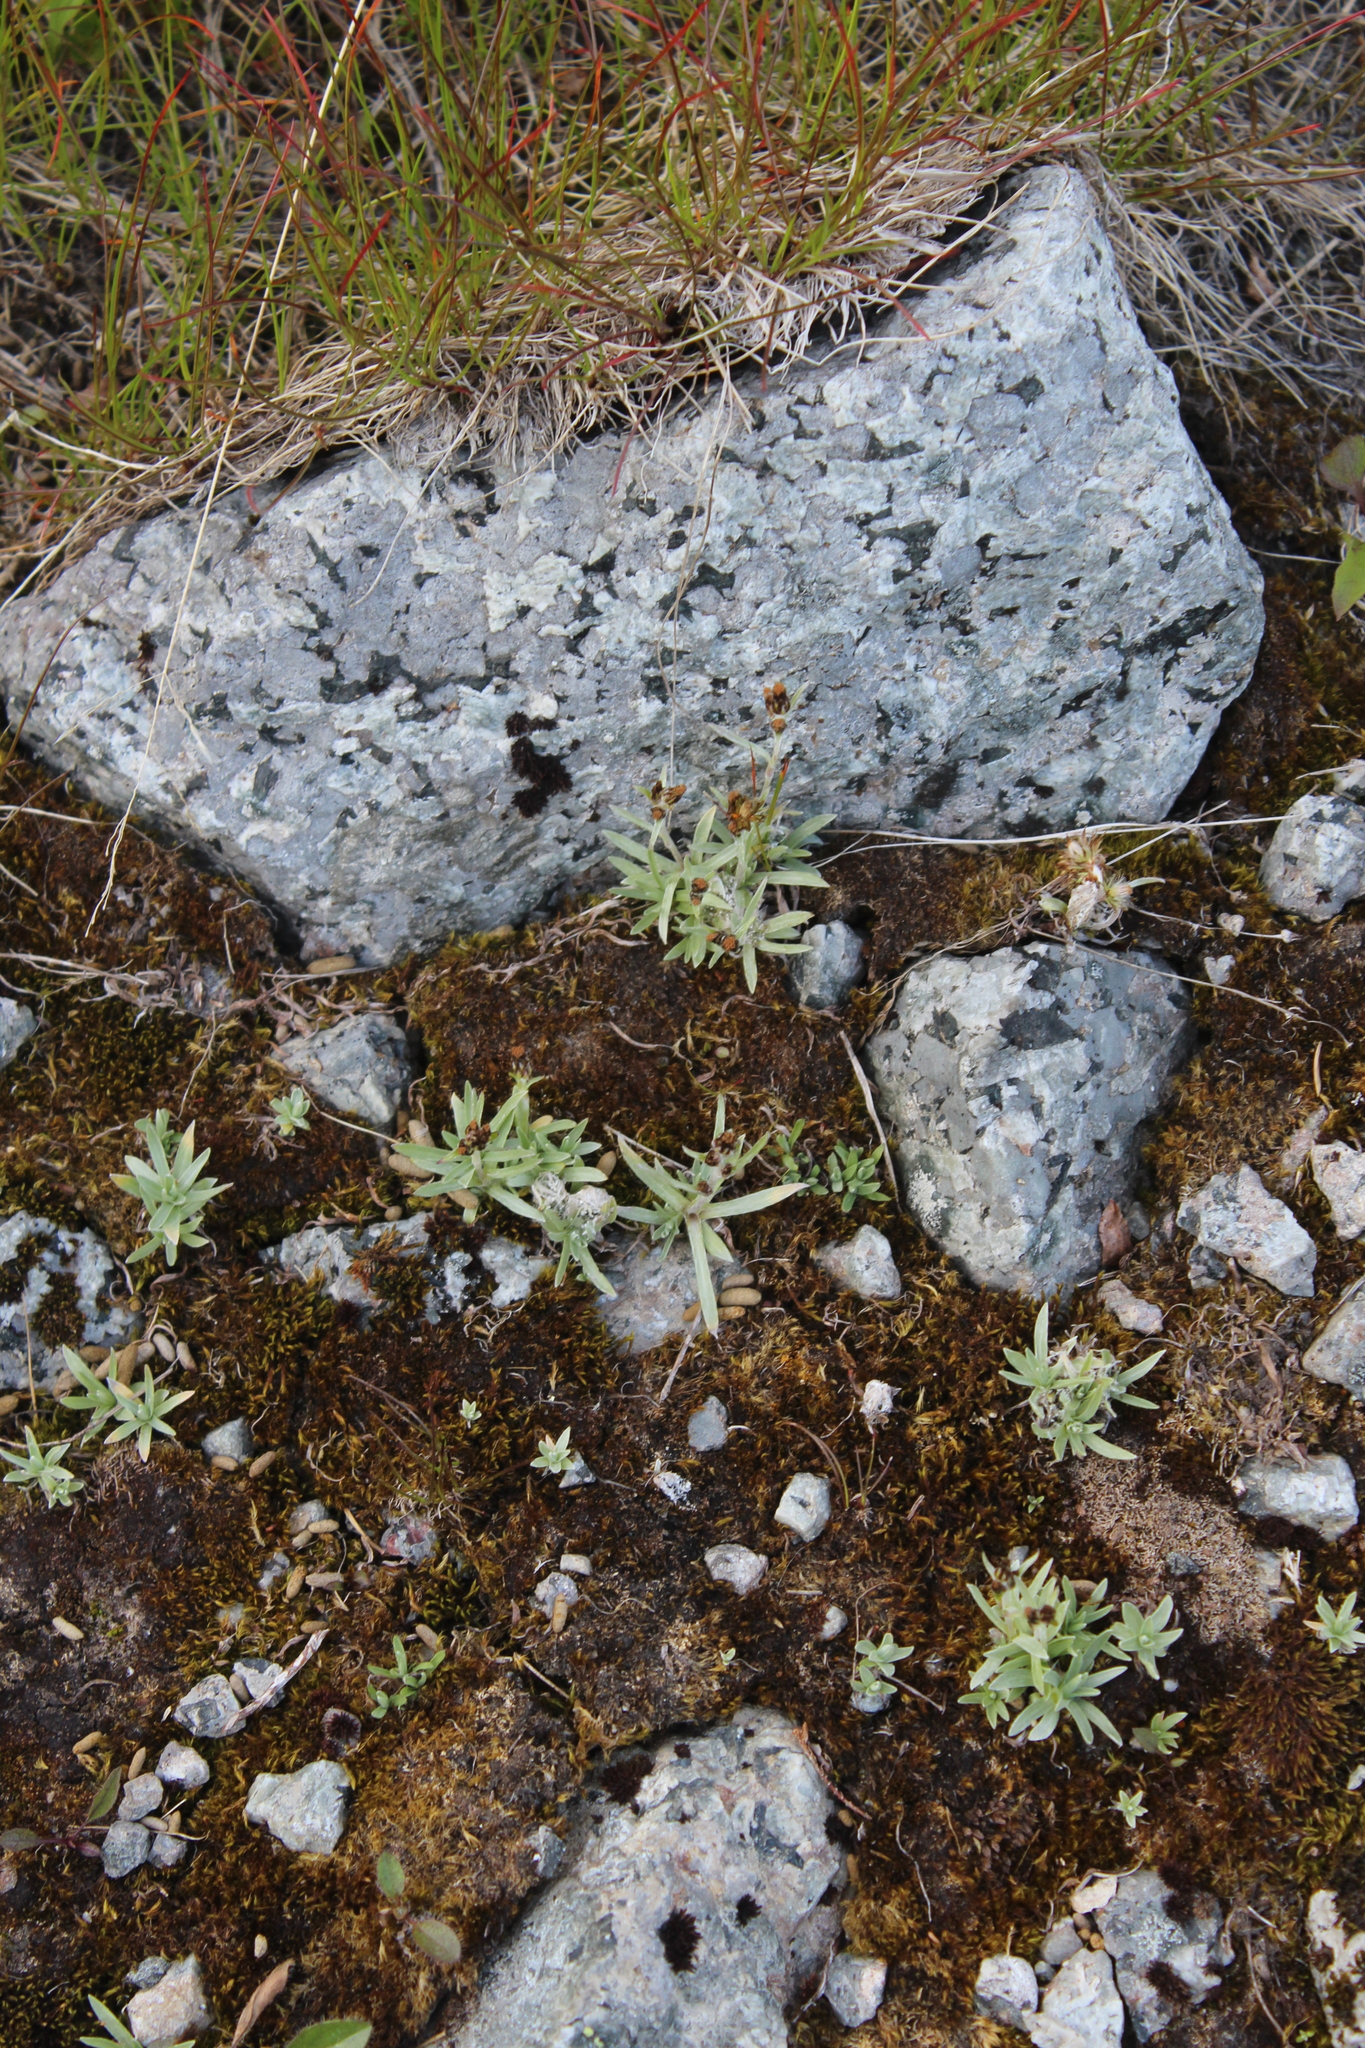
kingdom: Plantae
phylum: Tracheophyta
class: Magnoliopsida
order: Asterales
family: Asteraceae
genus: Omalotheca
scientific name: Omalotheca supina
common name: Alpine arctic-cudweed
